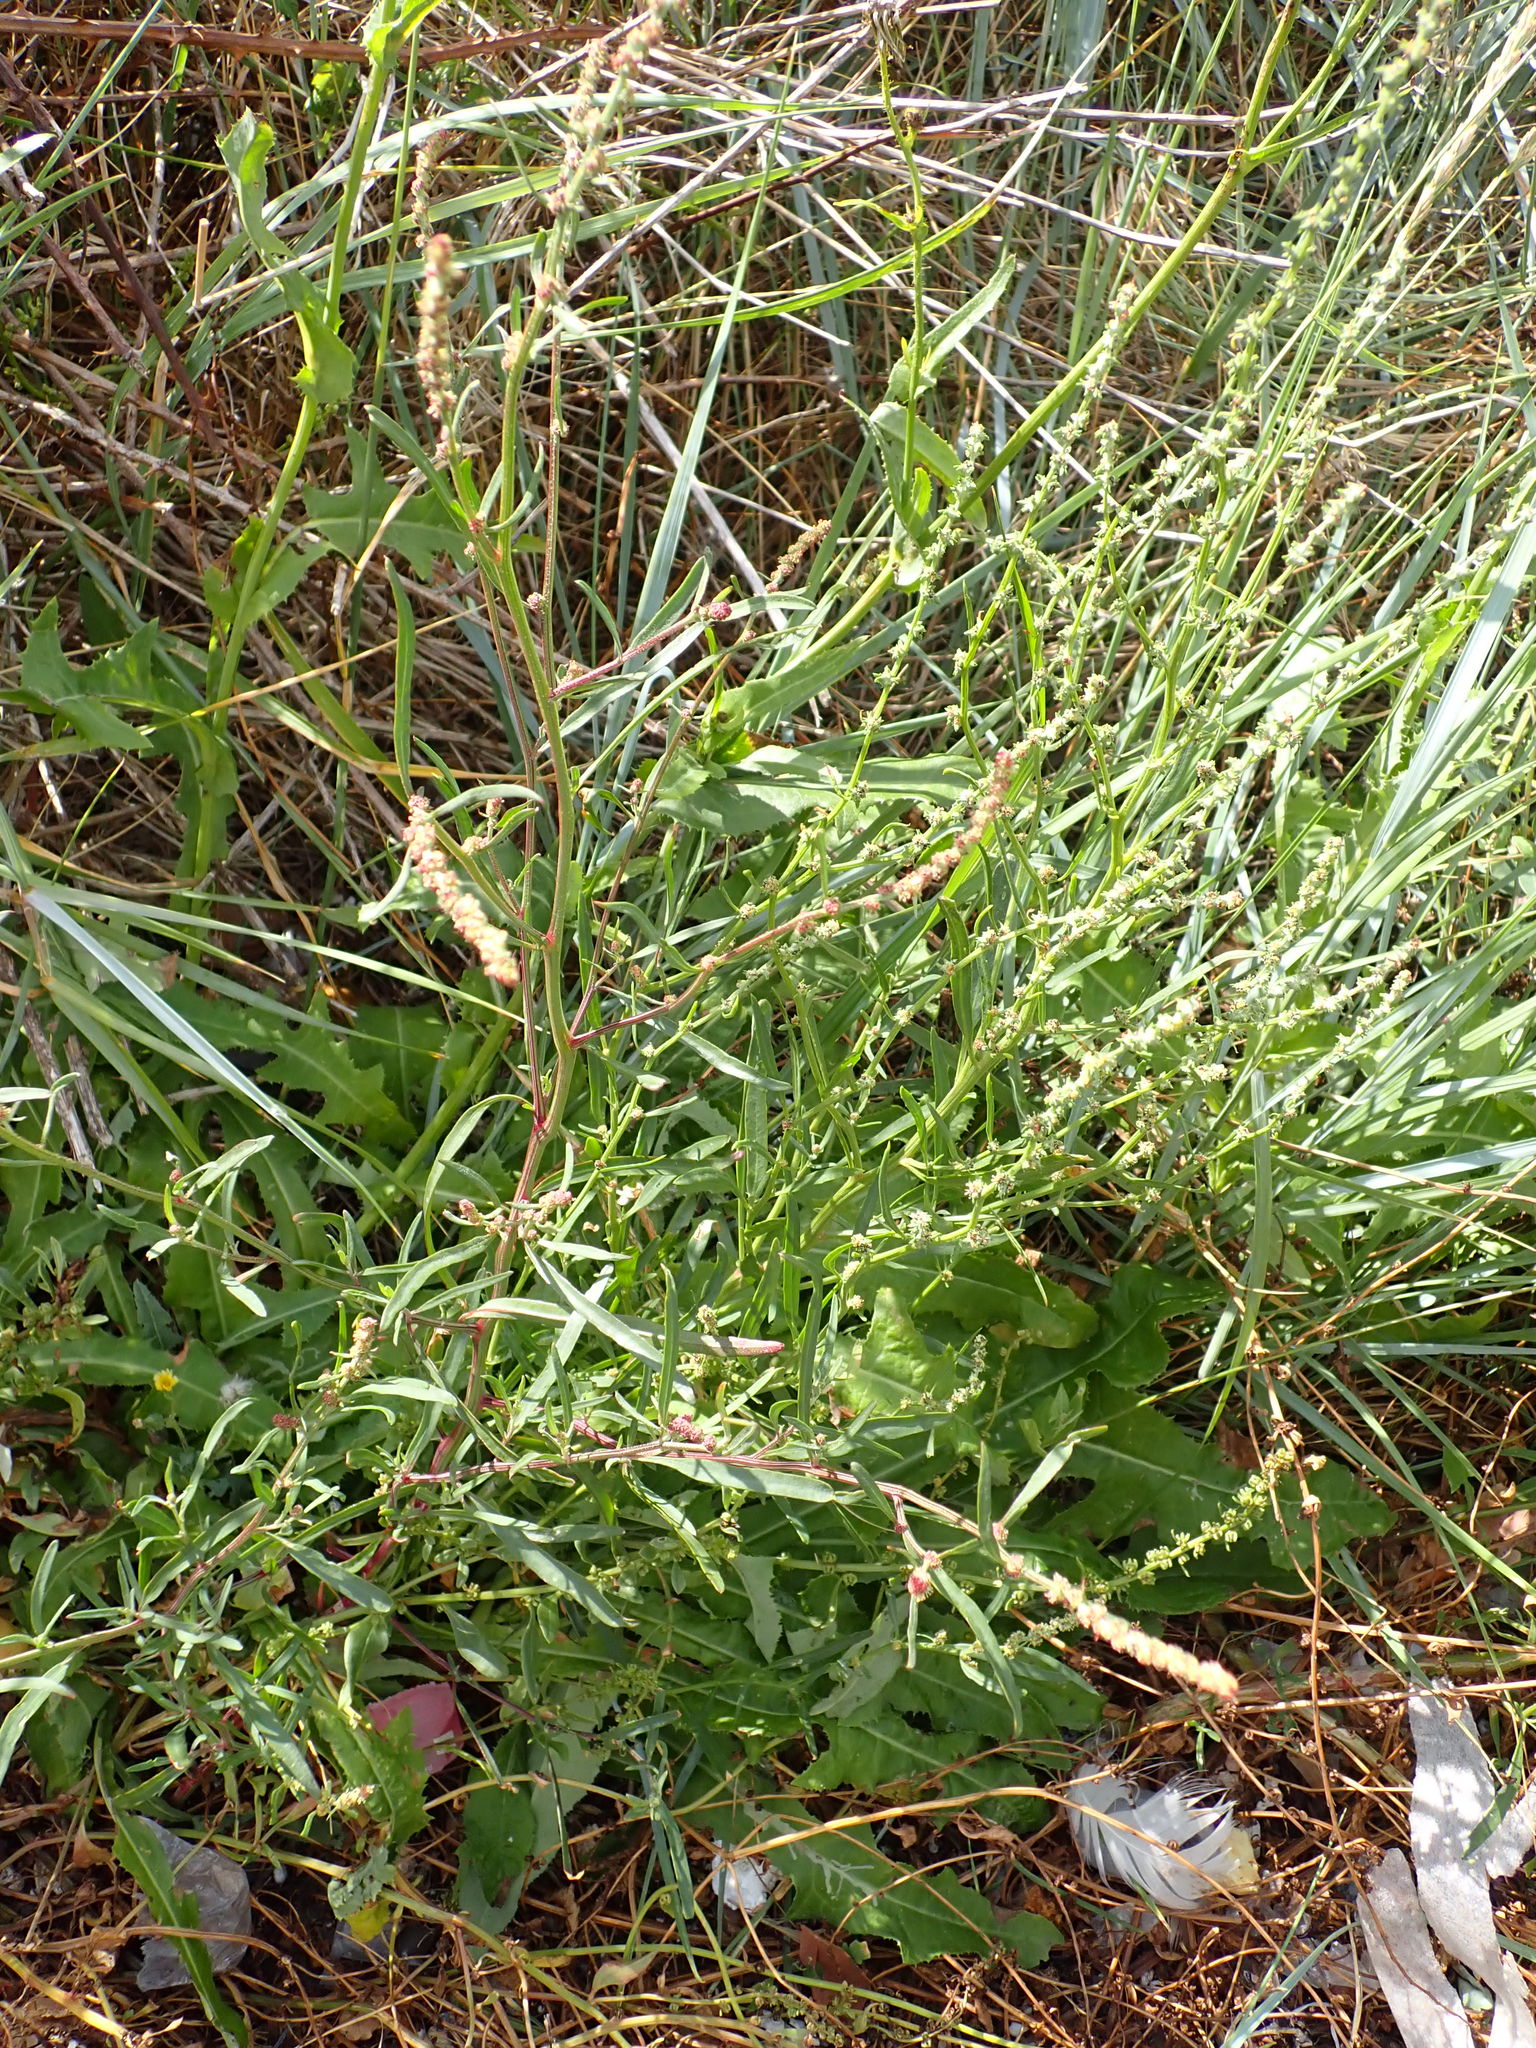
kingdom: Plantae
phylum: Tracheophyta
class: Magnoliopsida
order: Caryophyllales
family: Amaranthaceae
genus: Atriplex
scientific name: Atriplex littoralis
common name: Grass-leaved orache
